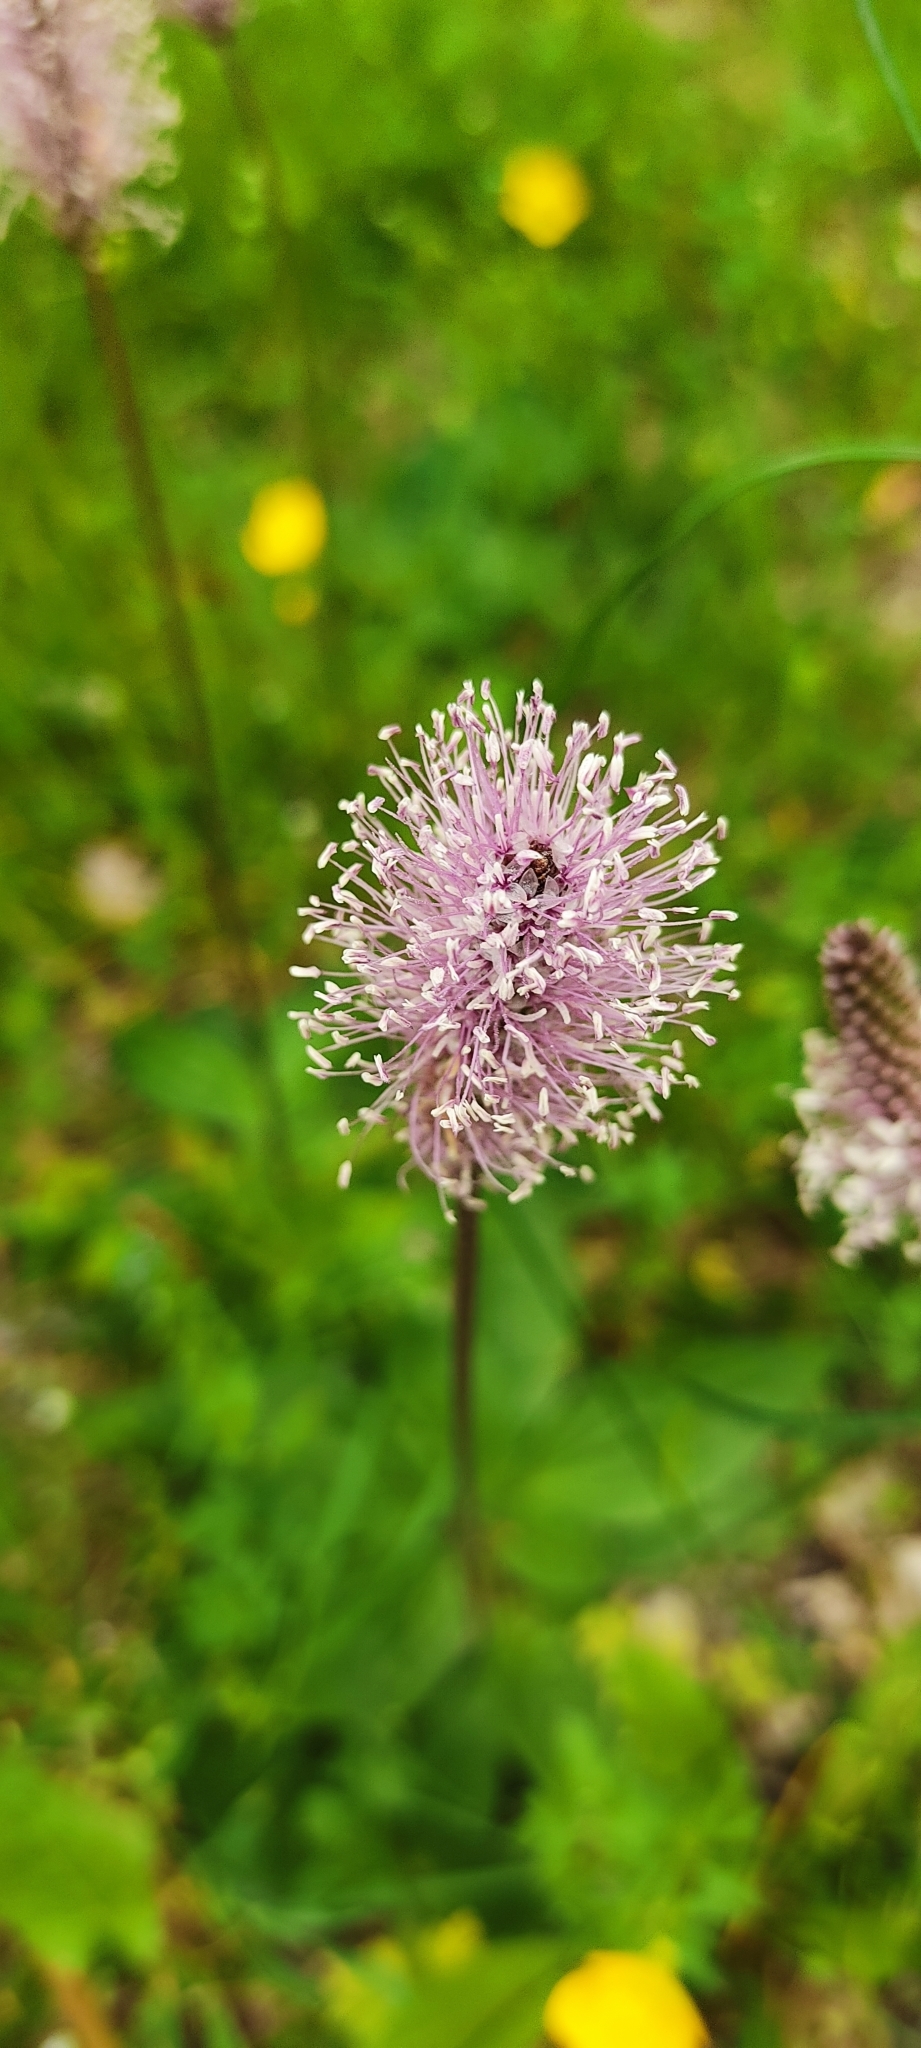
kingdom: Plantae
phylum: Tracheophyta
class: Magnoliopsida
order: Lamiales
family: Plantaginaceae
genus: Plantago
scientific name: Plantago media
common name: Hoary plantain
